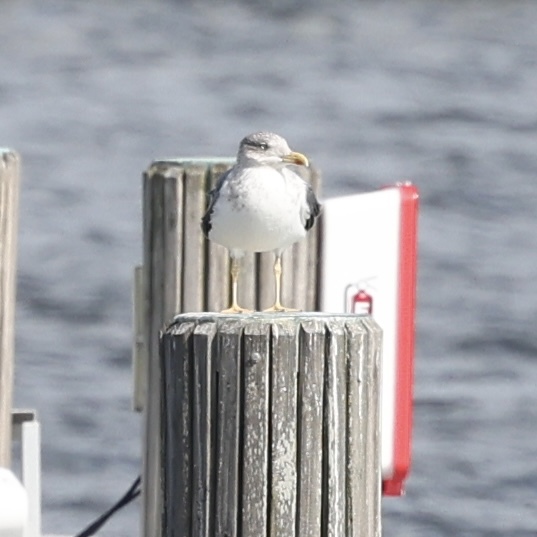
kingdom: Animalia
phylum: Chordata
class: Aves
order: Charadriiformes
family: Laridae
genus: Larus
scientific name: Larus fuscus
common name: Lesser black-backed gull
